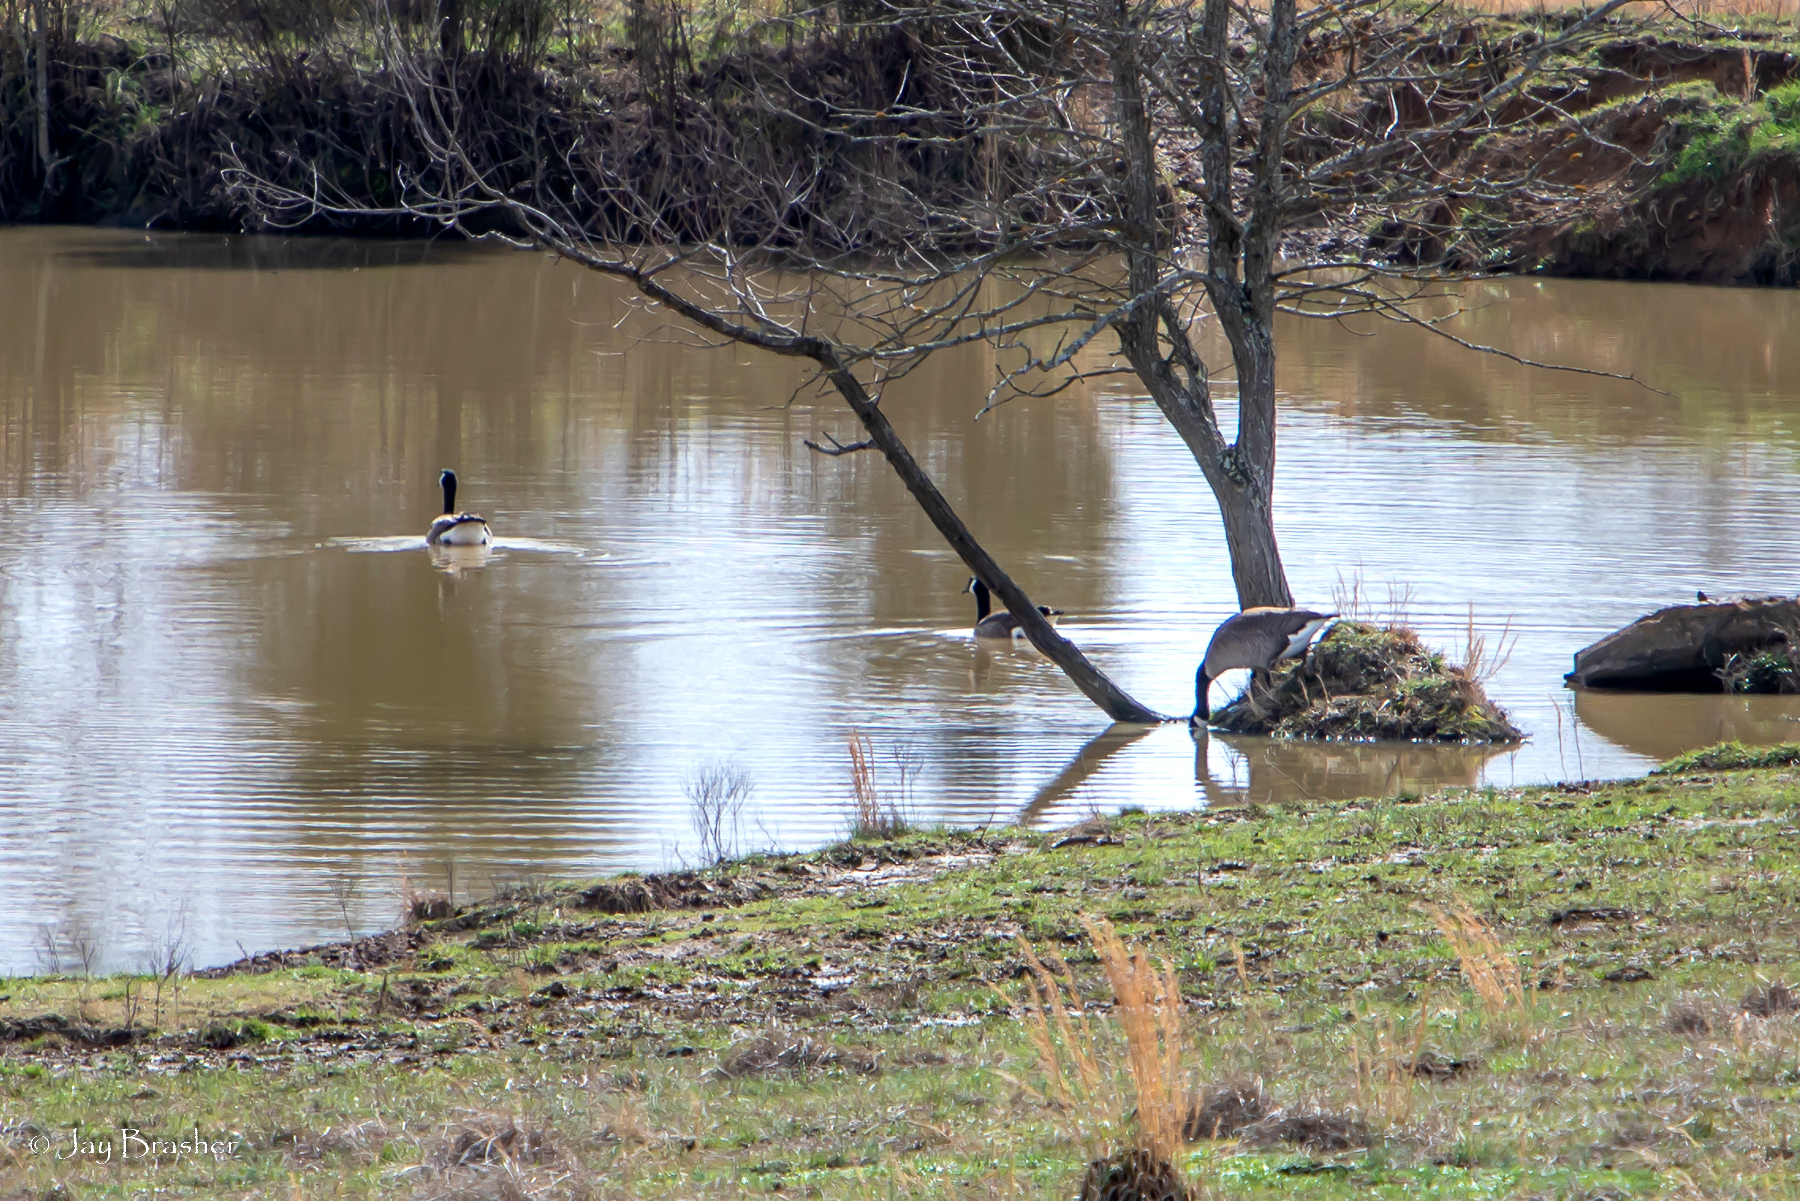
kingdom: Animalia
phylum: Chordata
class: Aves
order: Anseriformes
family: Anatidae
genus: Branta
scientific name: Branta canadensis
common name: Canada goose
